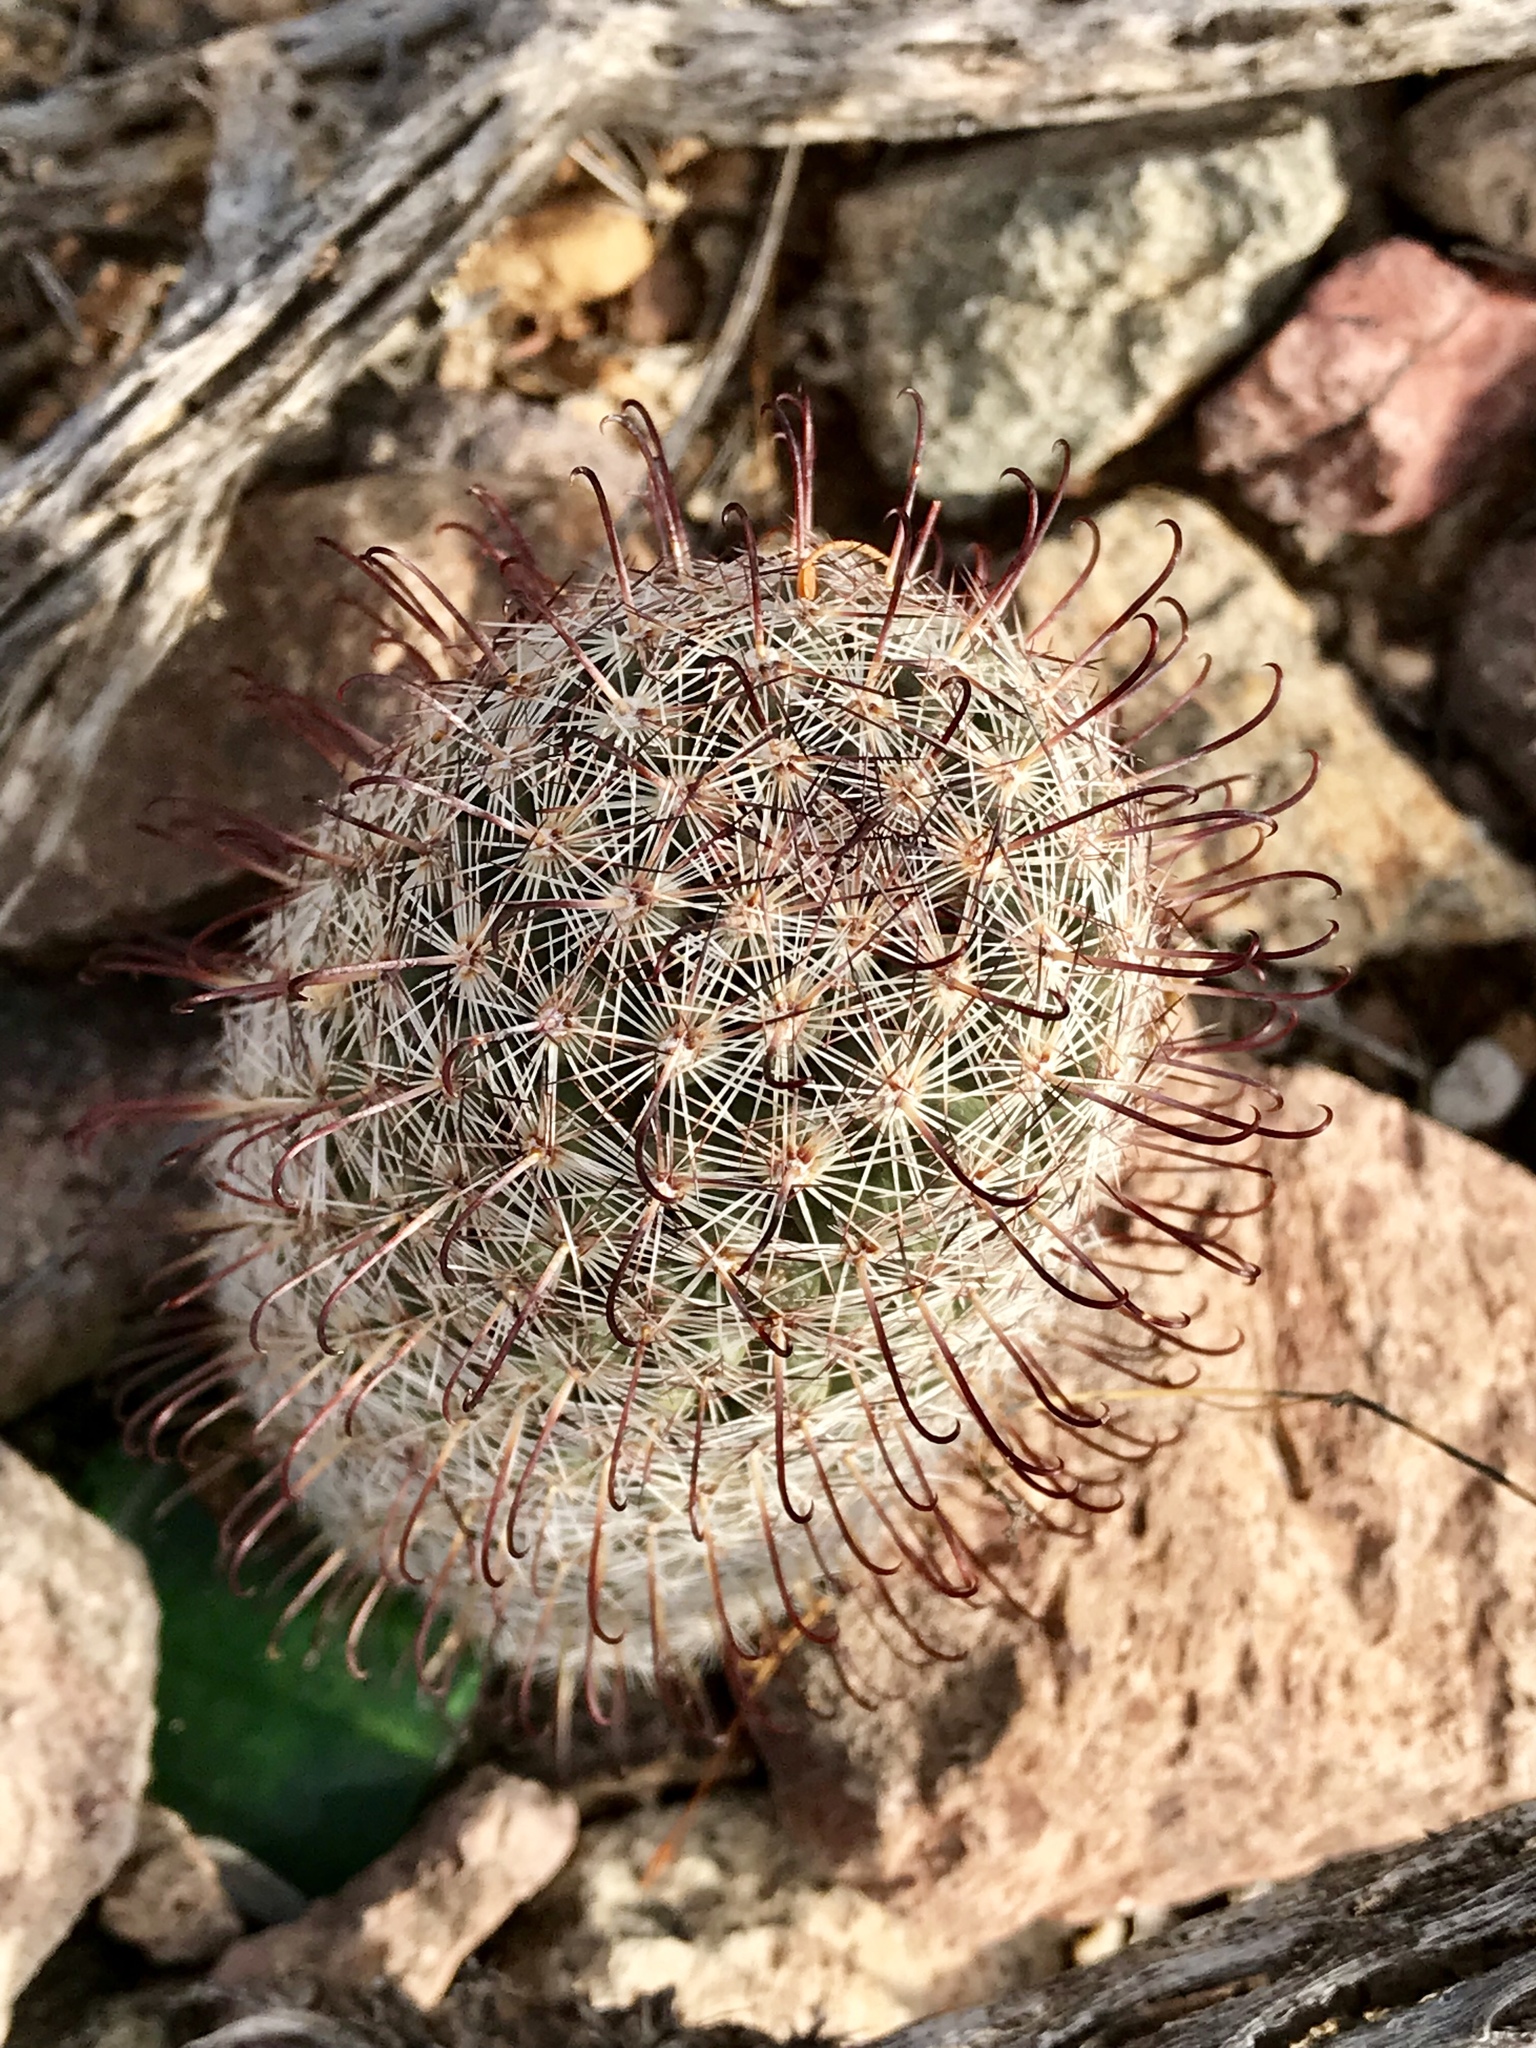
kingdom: Plantae
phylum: Tracheophyta
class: Magnoliopsida
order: Caryophyllales
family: Cactaceae
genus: Cochemiea
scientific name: Cochemiea grahamii
